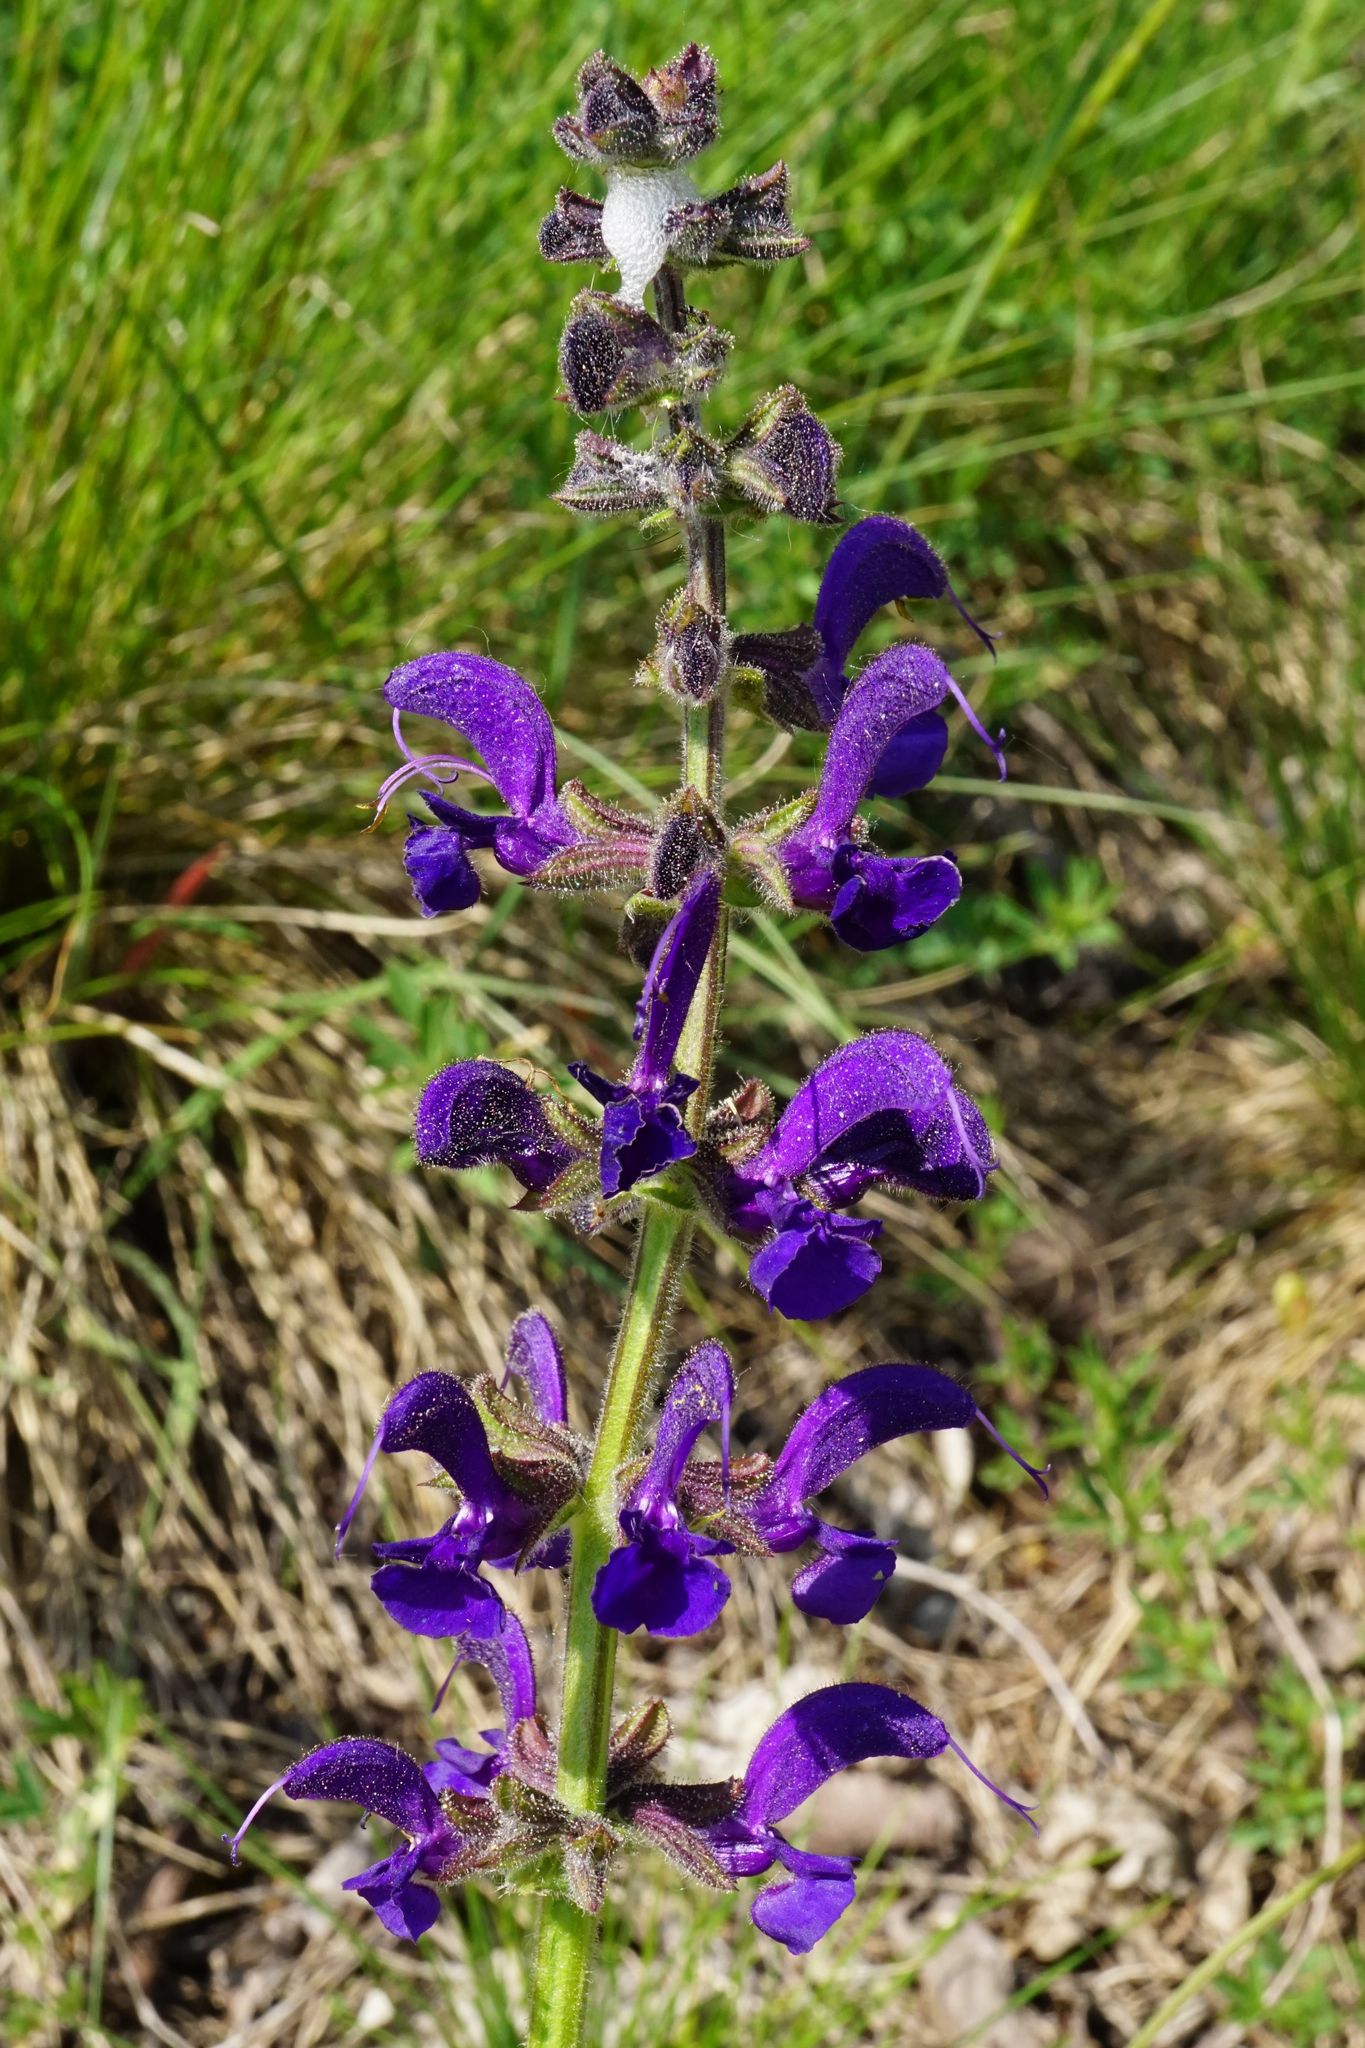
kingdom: Plantae
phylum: Tracheophyta
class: Magnoliopsida
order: Lamiales
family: Lamiaceae
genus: Salvia
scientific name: Salvia pratensis
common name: Meadow sage
